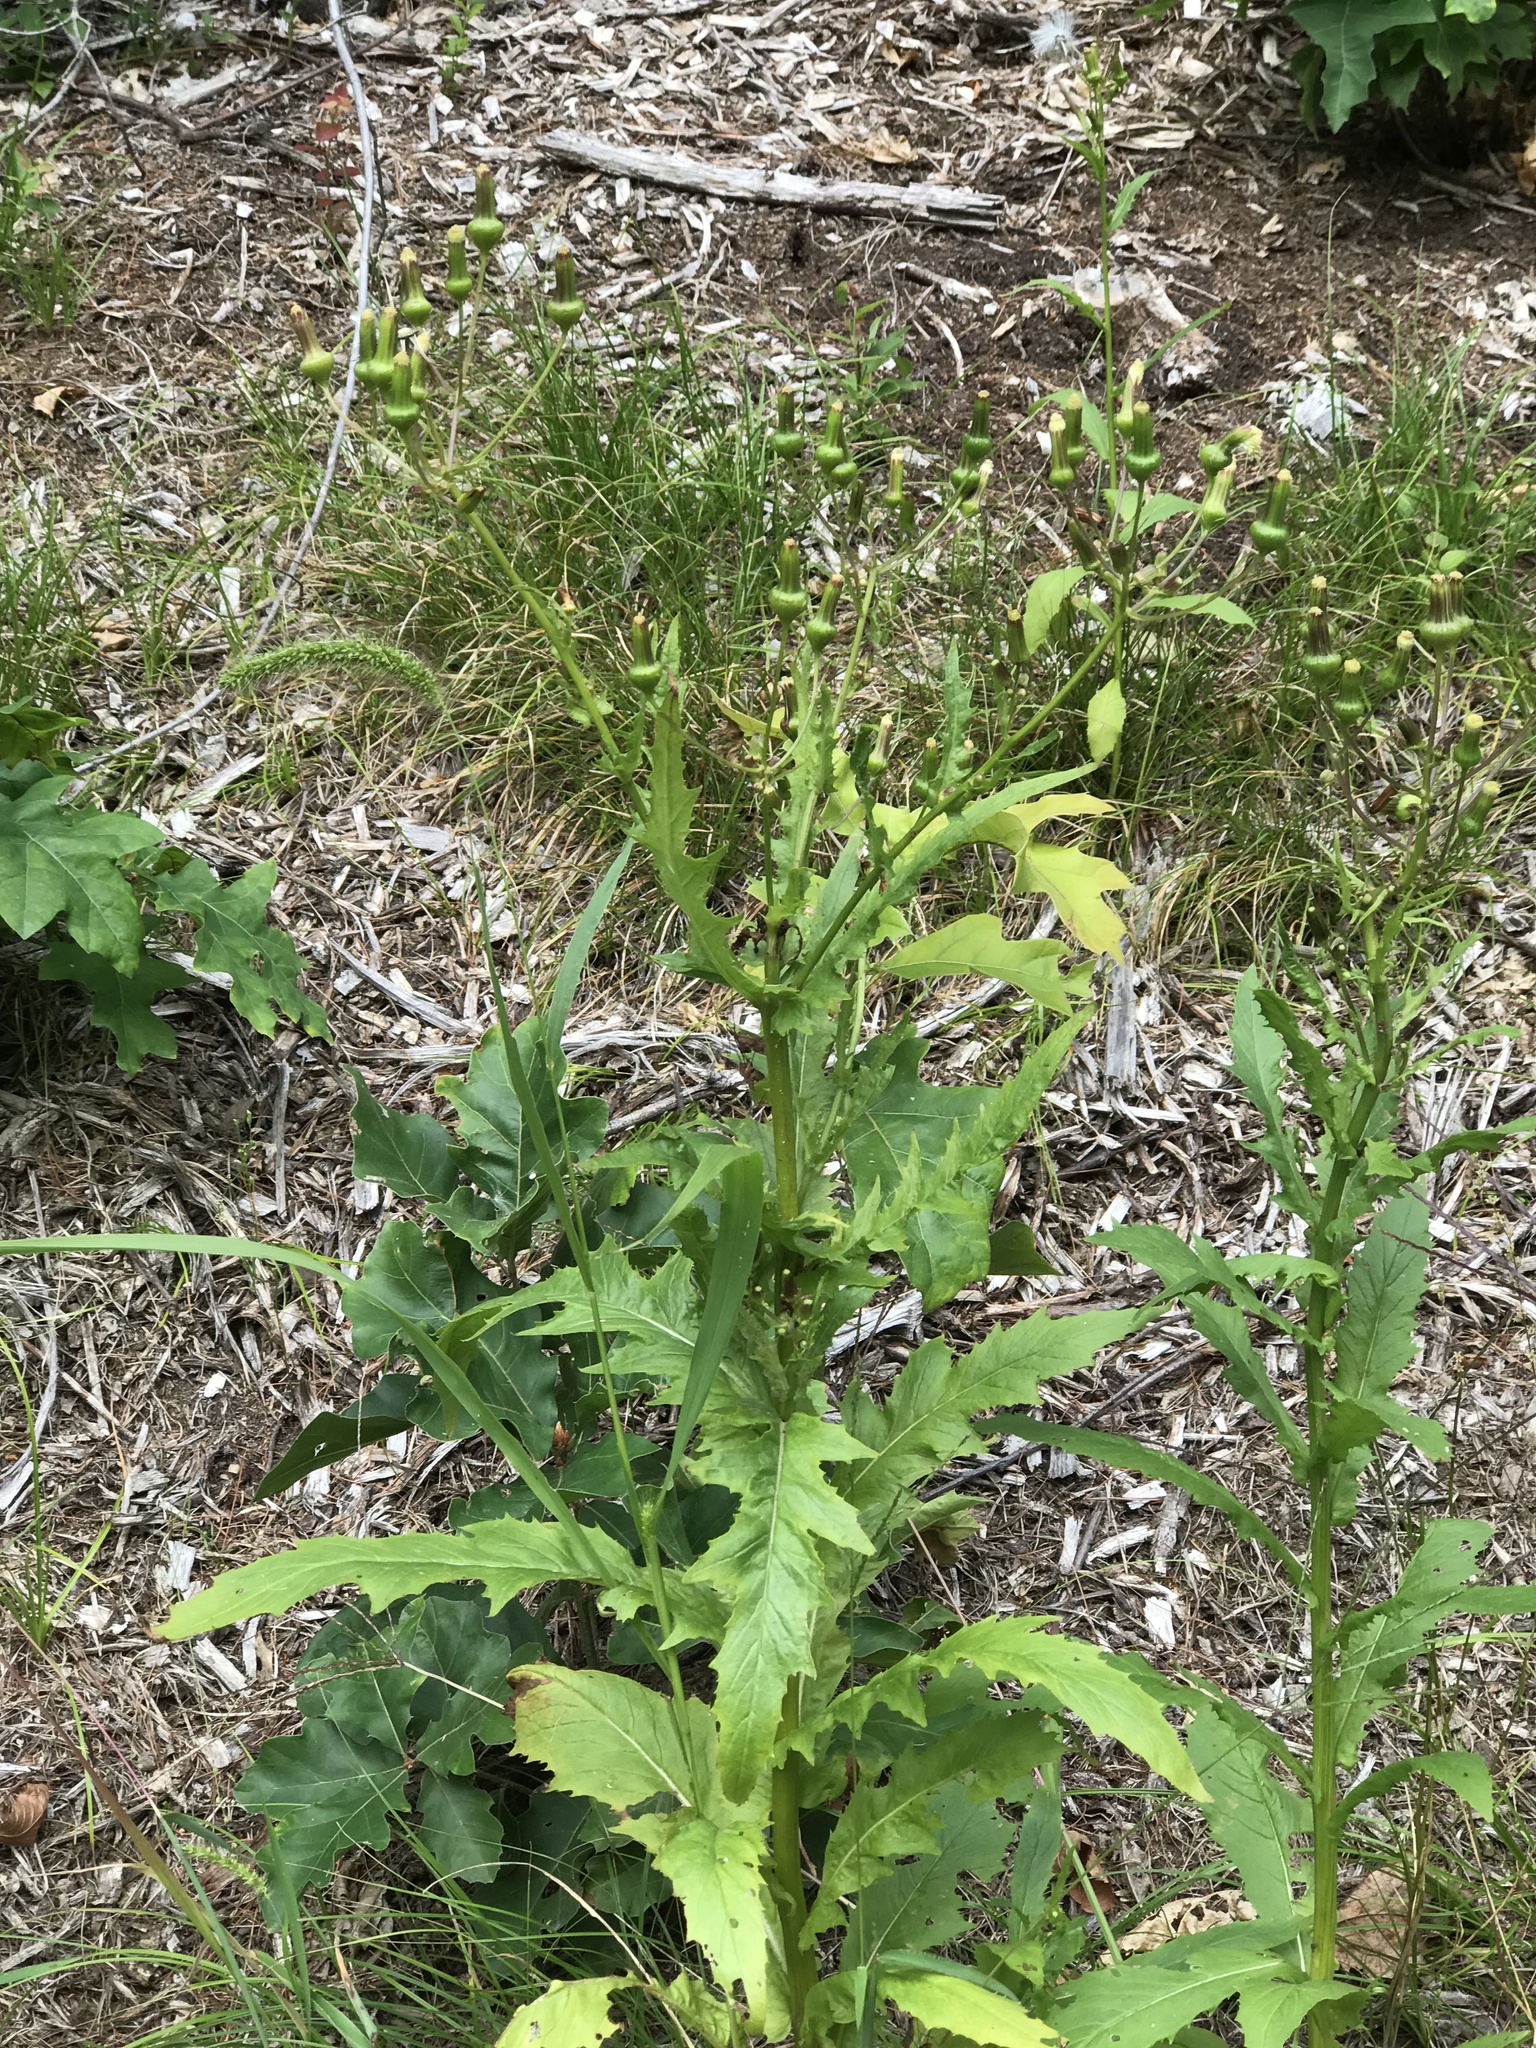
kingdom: Plantae
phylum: Tracheophyta
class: Magnoliopsida
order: Asterales
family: Asteraceae
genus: Erechtites
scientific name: Erechtites hieraciifolius
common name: American burnweed
